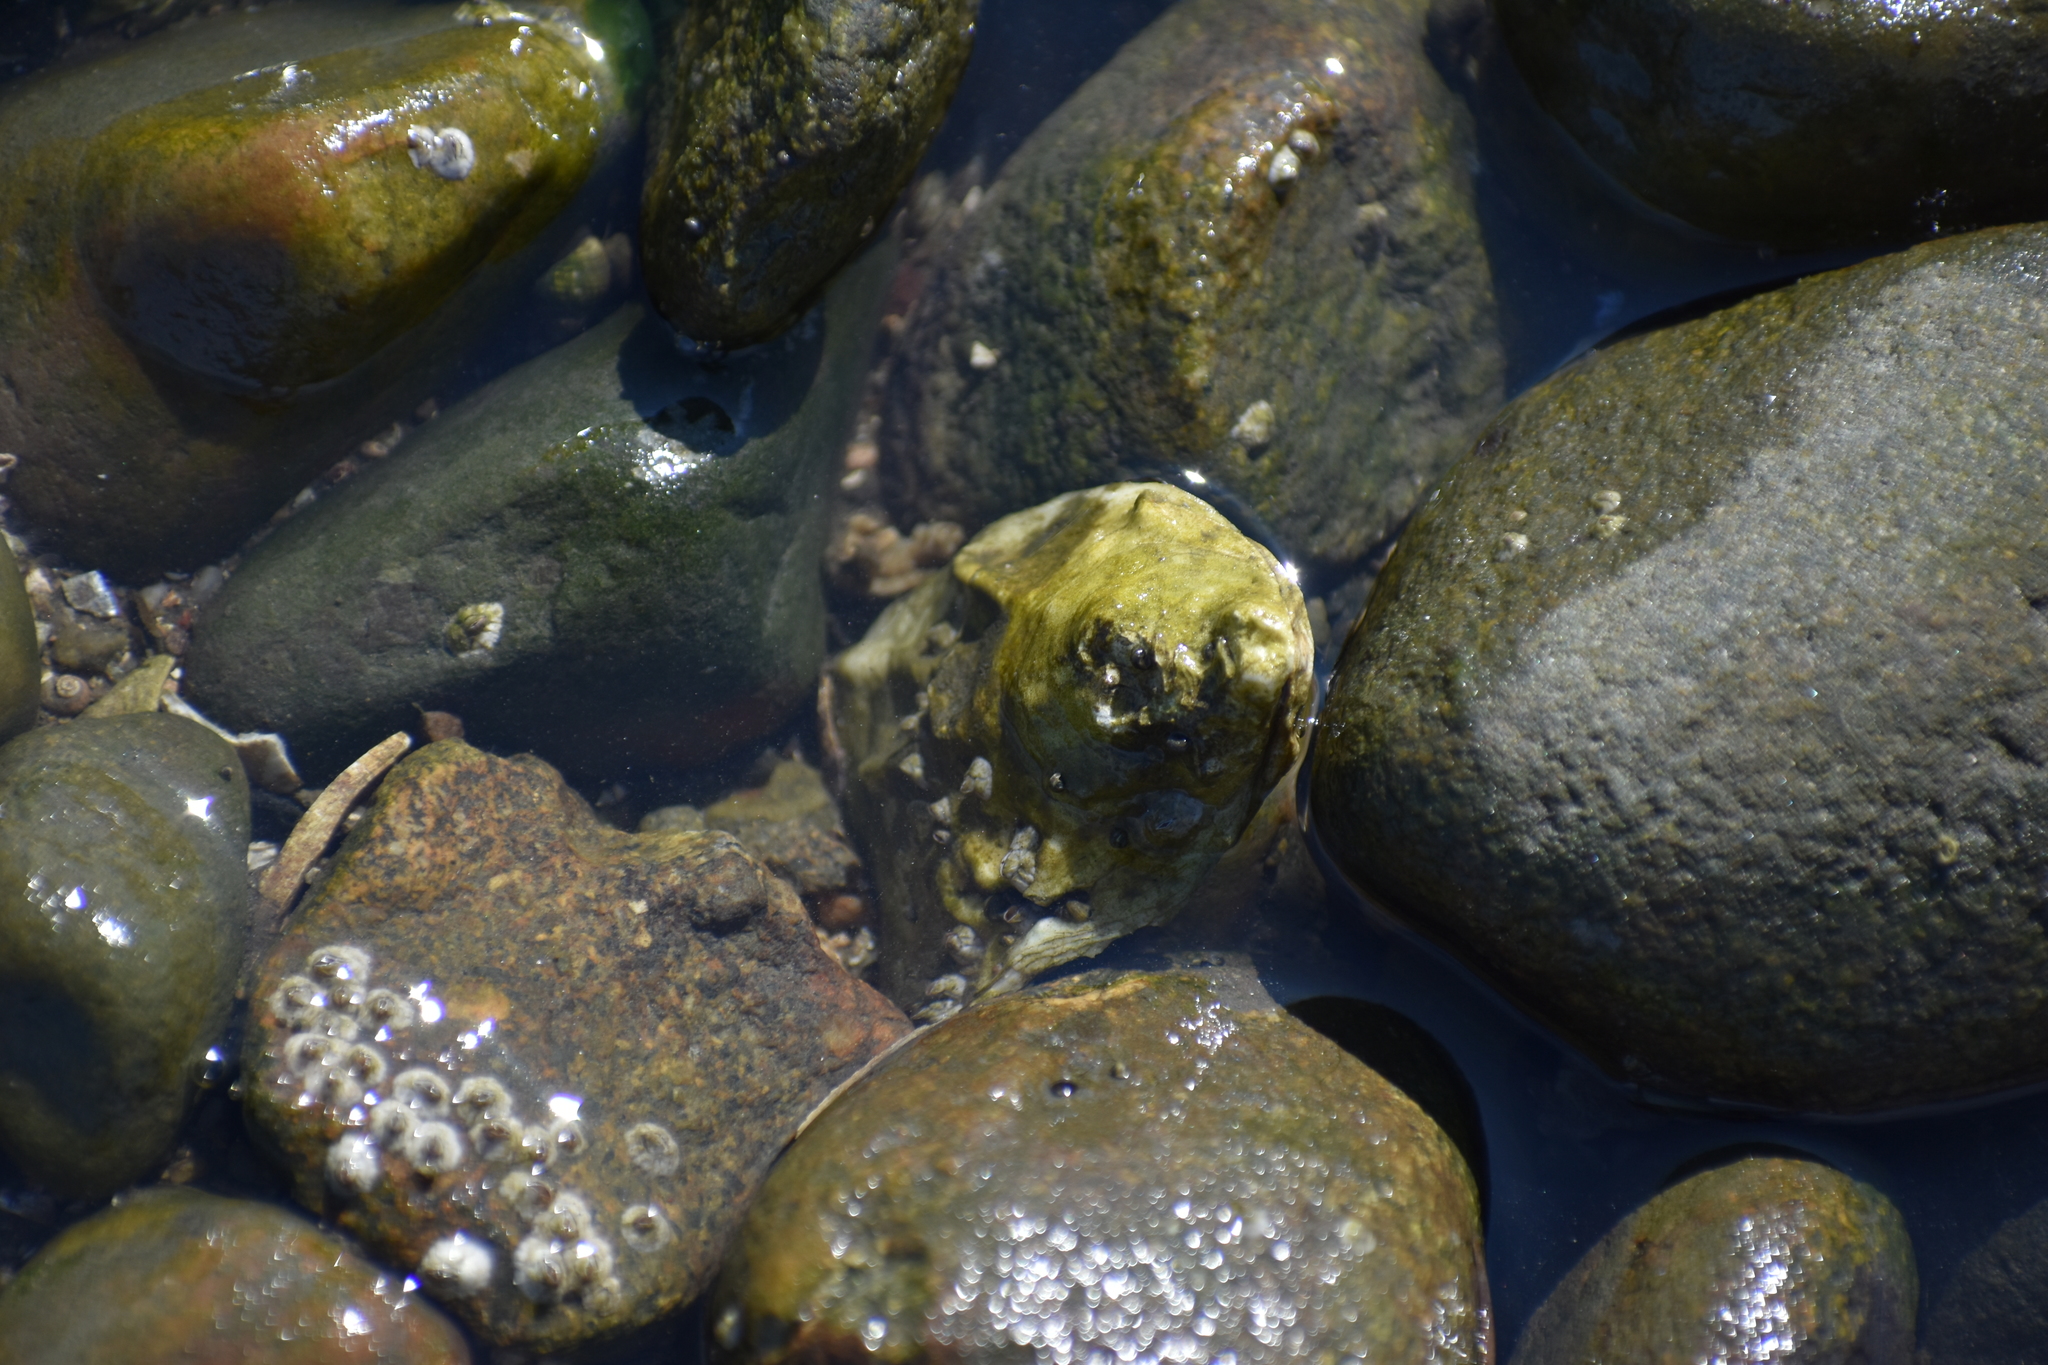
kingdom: Animalia
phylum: Mollusca
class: Bivalvia
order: Ostreida
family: Ostreidae
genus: Crassostrea
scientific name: Crassostrea virginica
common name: American oyster
